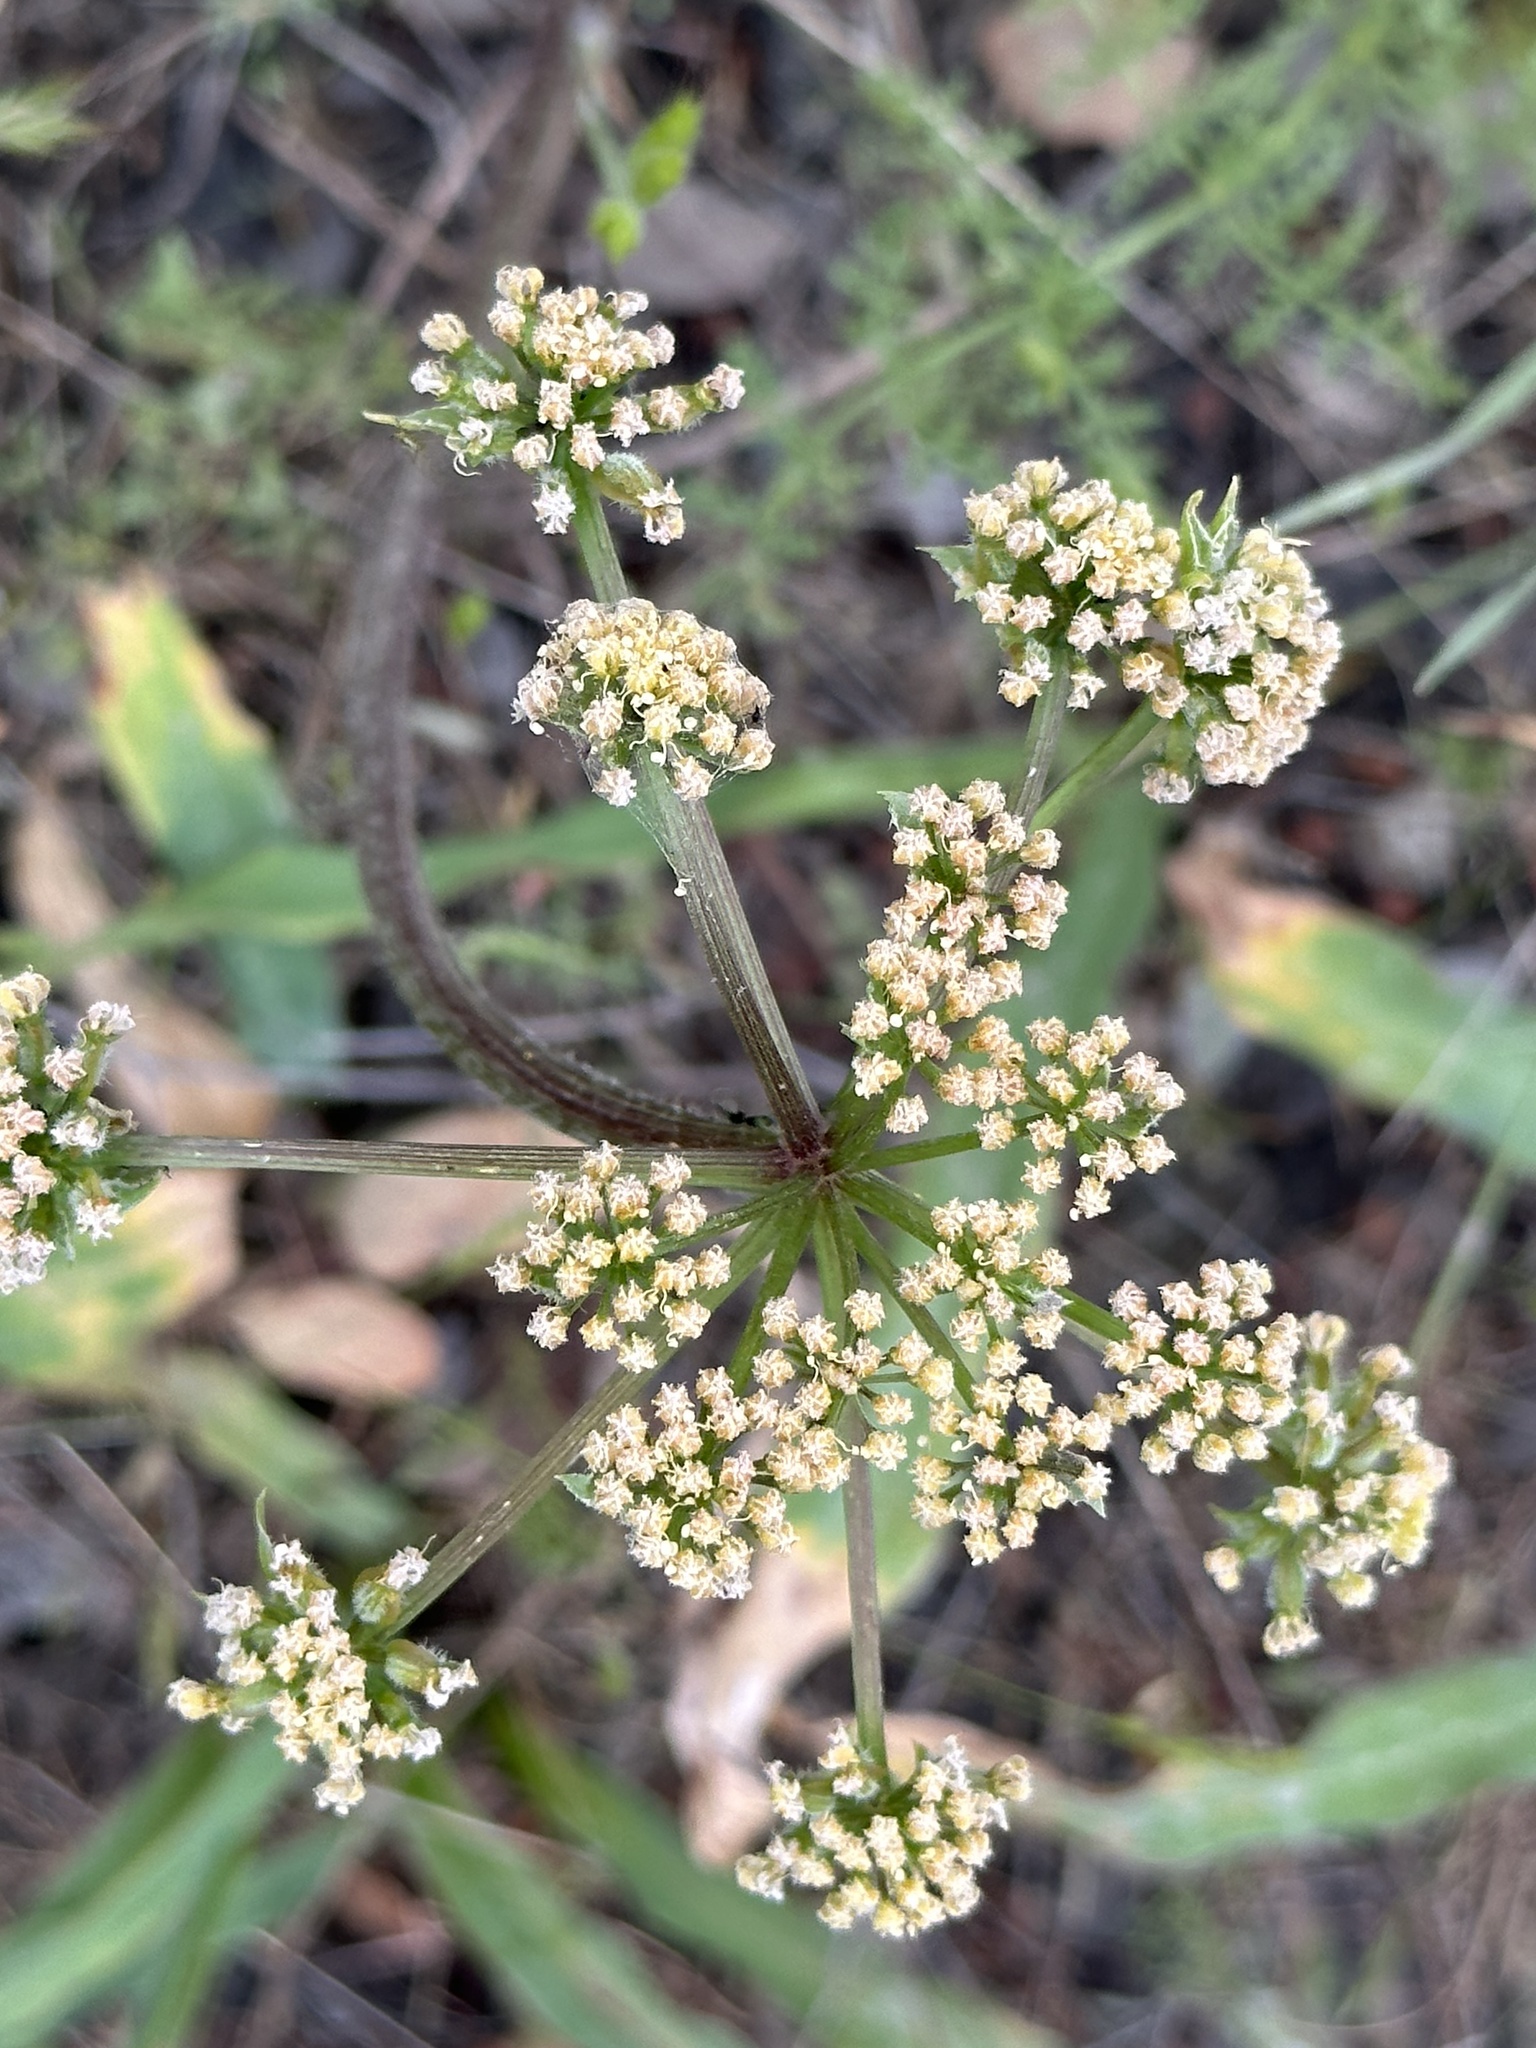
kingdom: Plantae
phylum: Tracheophyta
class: Magnoliopsida
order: Apiales
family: Apiaceae
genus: Lomatium
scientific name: Lomatium dasycarpum
